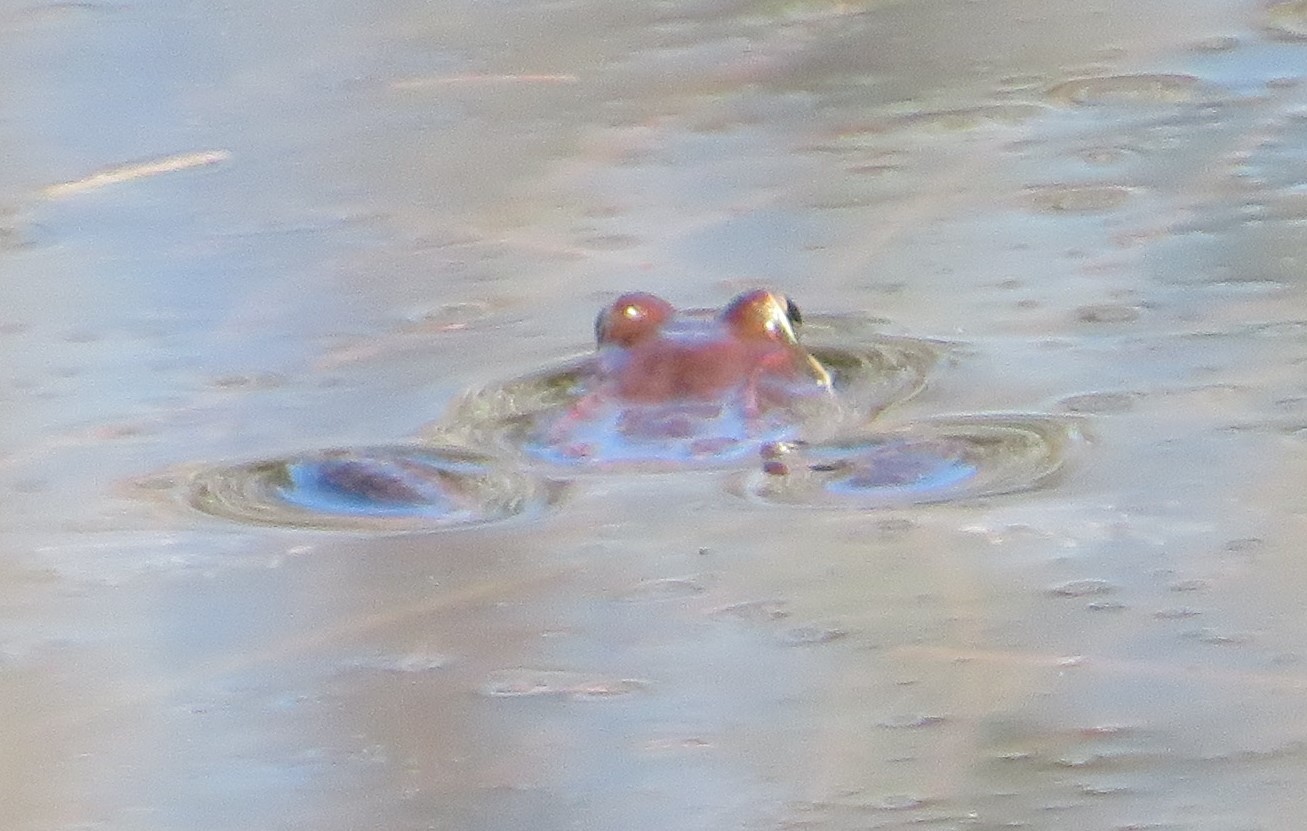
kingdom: Animalia
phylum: Chordata
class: Amphibia
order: Anura
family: Ranidae
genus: Lithobates
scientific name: Lithobates sylvaticus
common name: Wood frog
